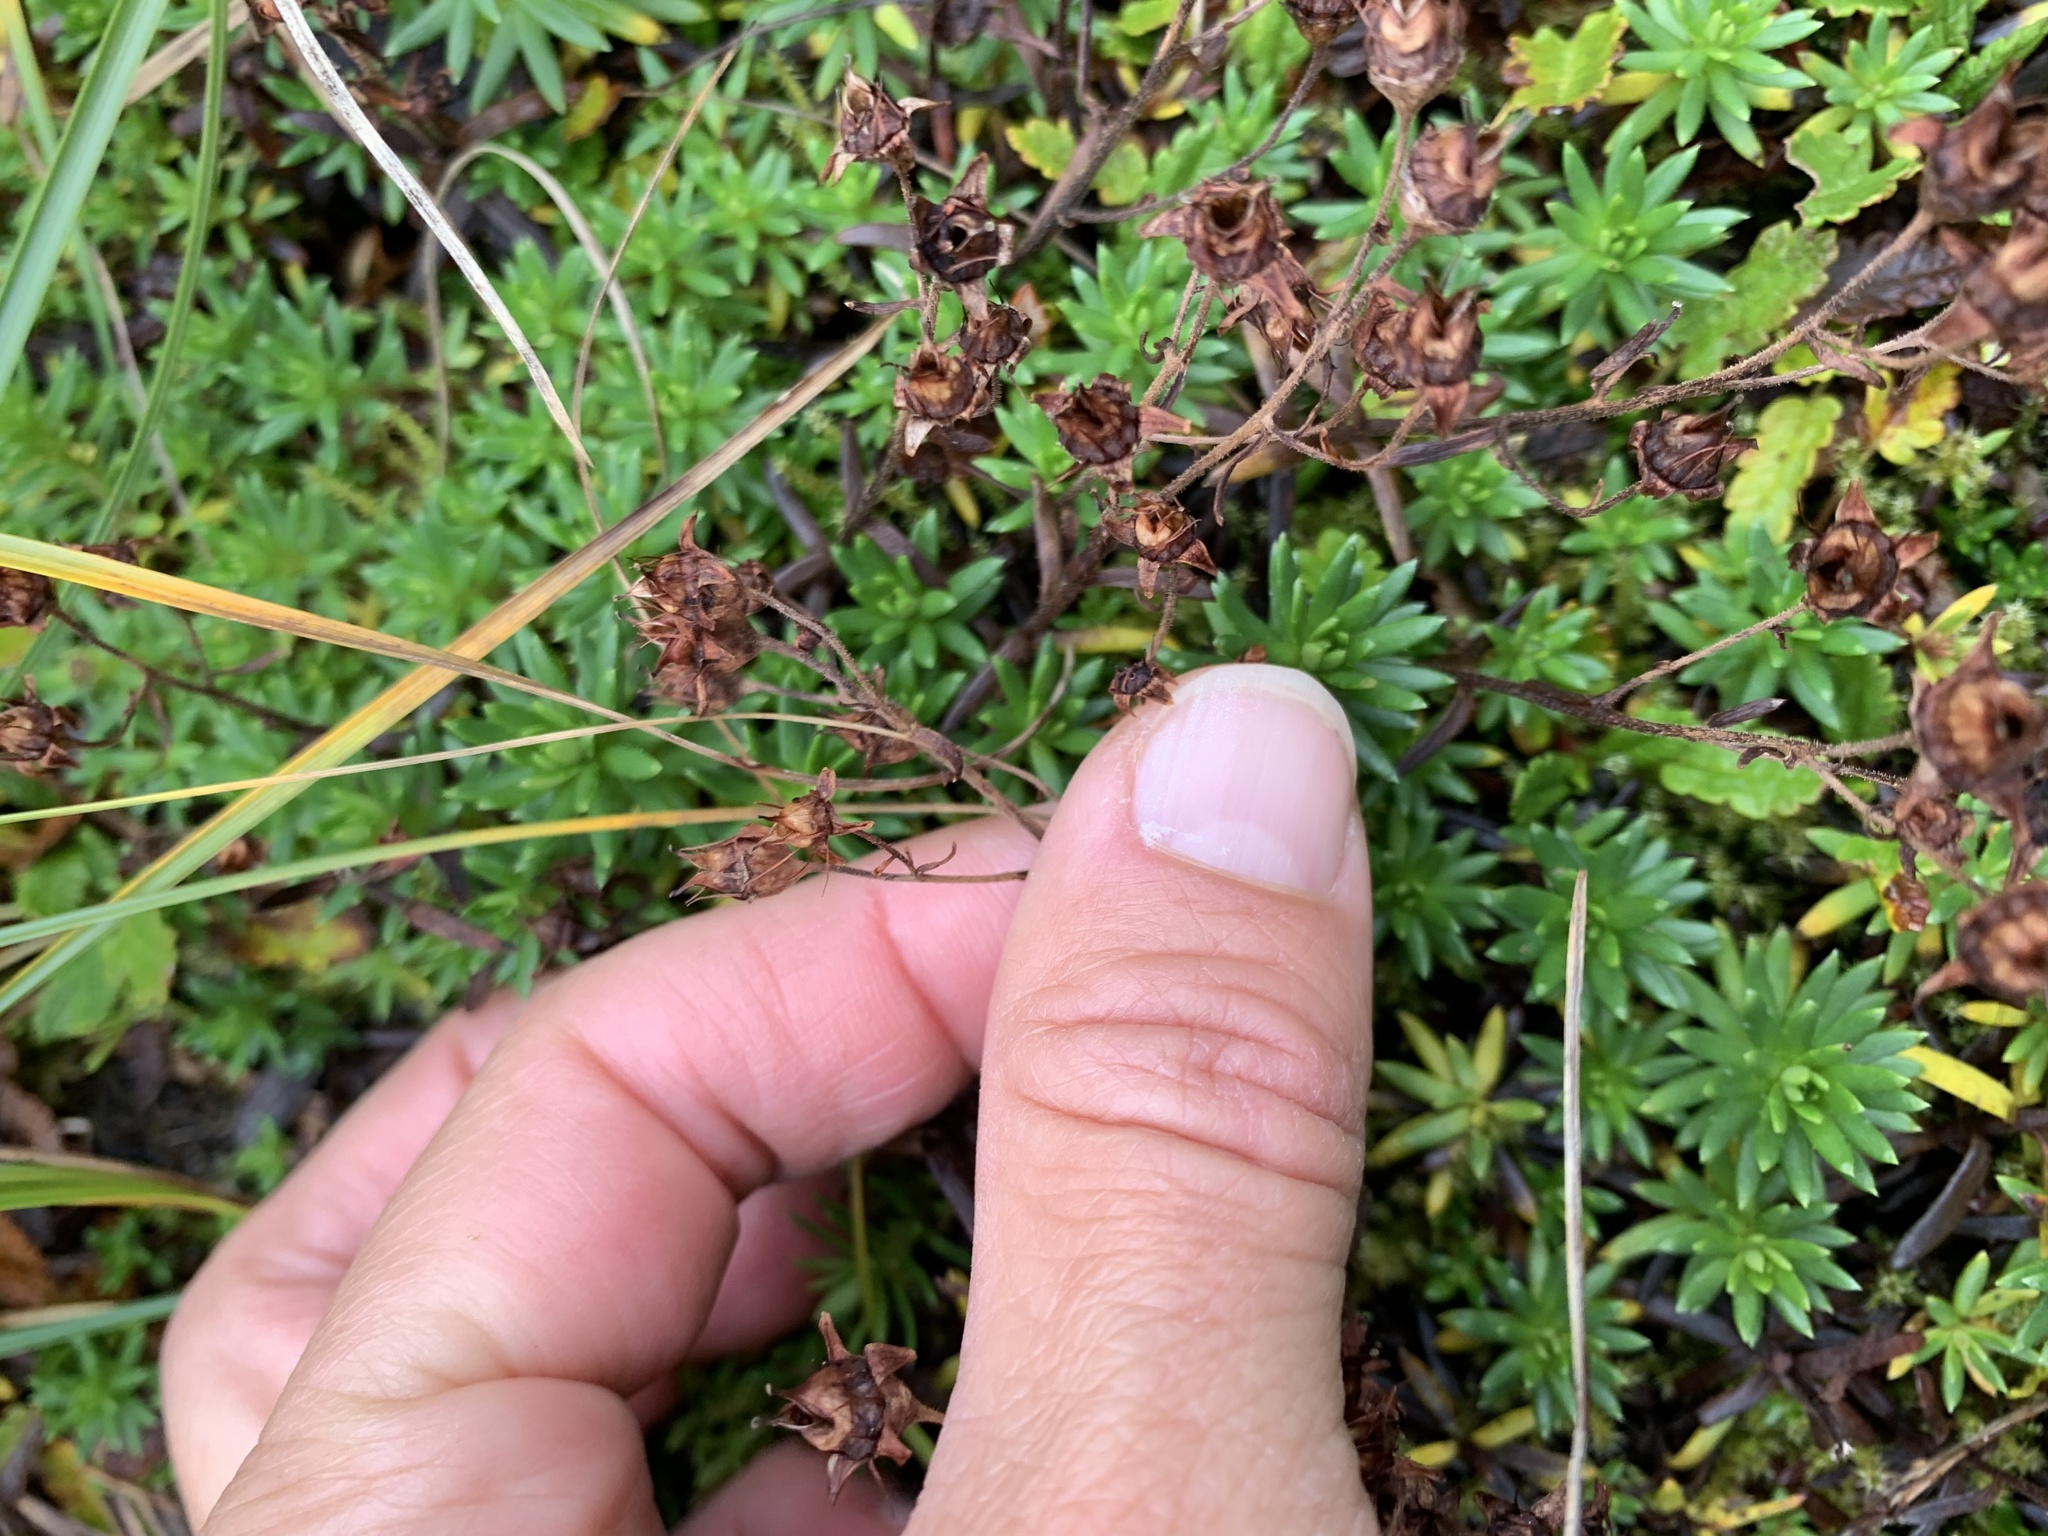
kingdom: Plantae
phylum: Tracheophyta
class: Magnoliopsida
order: Saxifragales
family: Saxifragaceae
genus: Saxifraga
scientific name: Saxifraga aizoides
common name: Yellow mountain saxifrage
